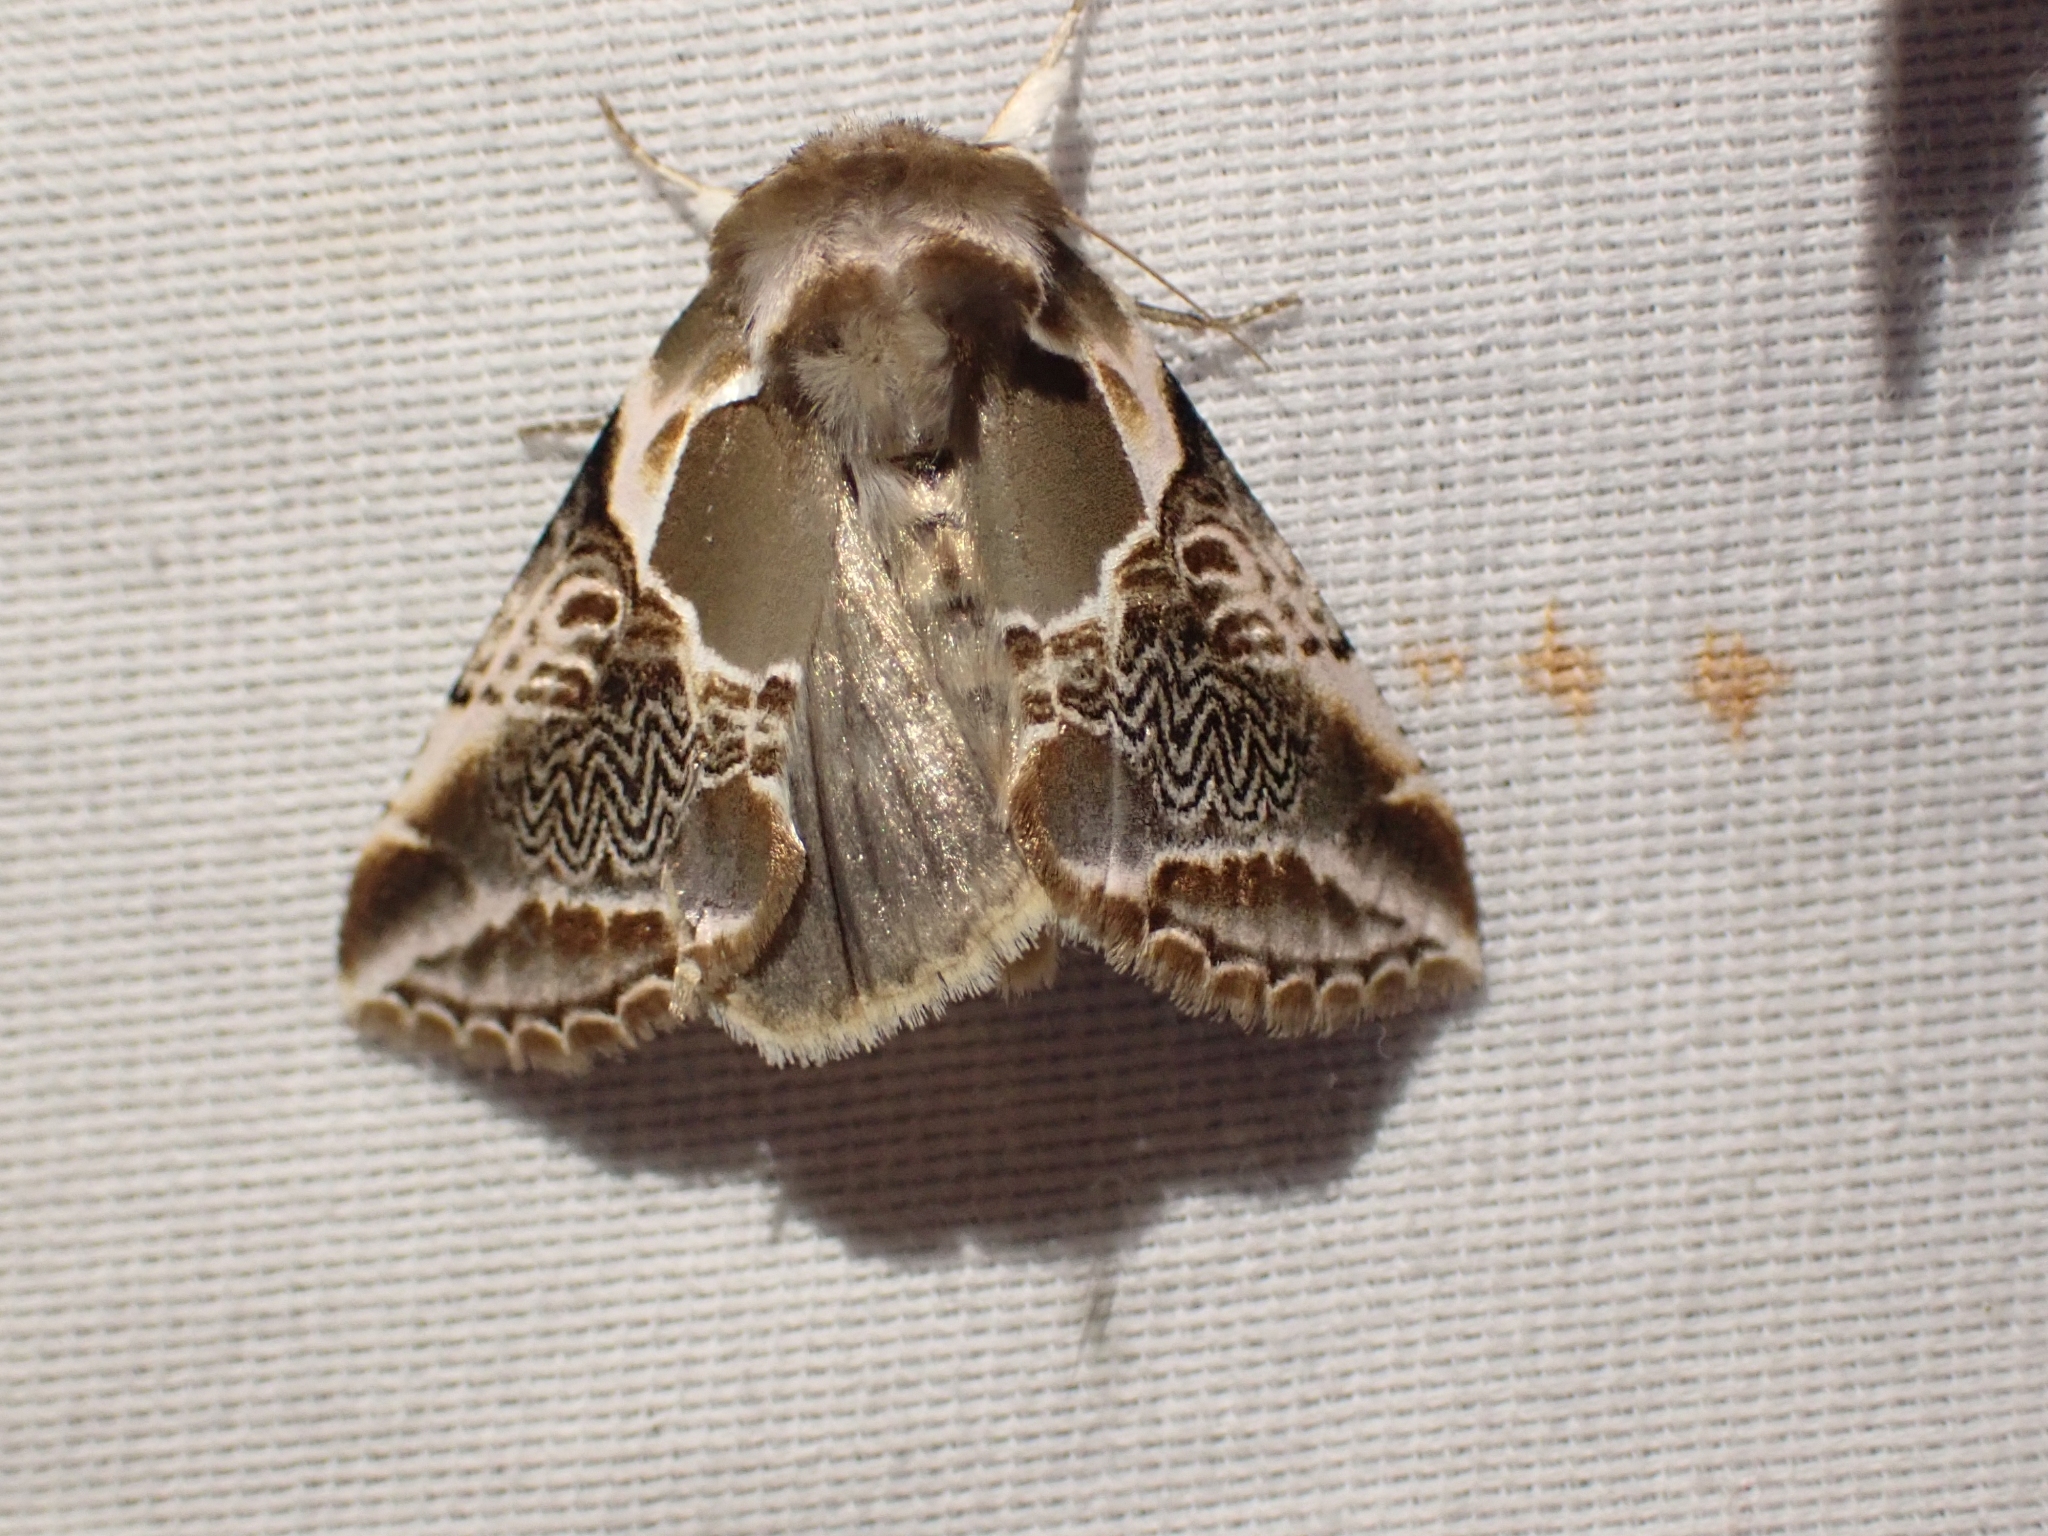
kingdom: Animalia
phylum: Arthropoda
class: Insecta
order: Lepidoptera
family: Drepanidae
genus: Habrosyne
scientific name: Habrosyne scripta
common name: Lettered habrosyne moth
